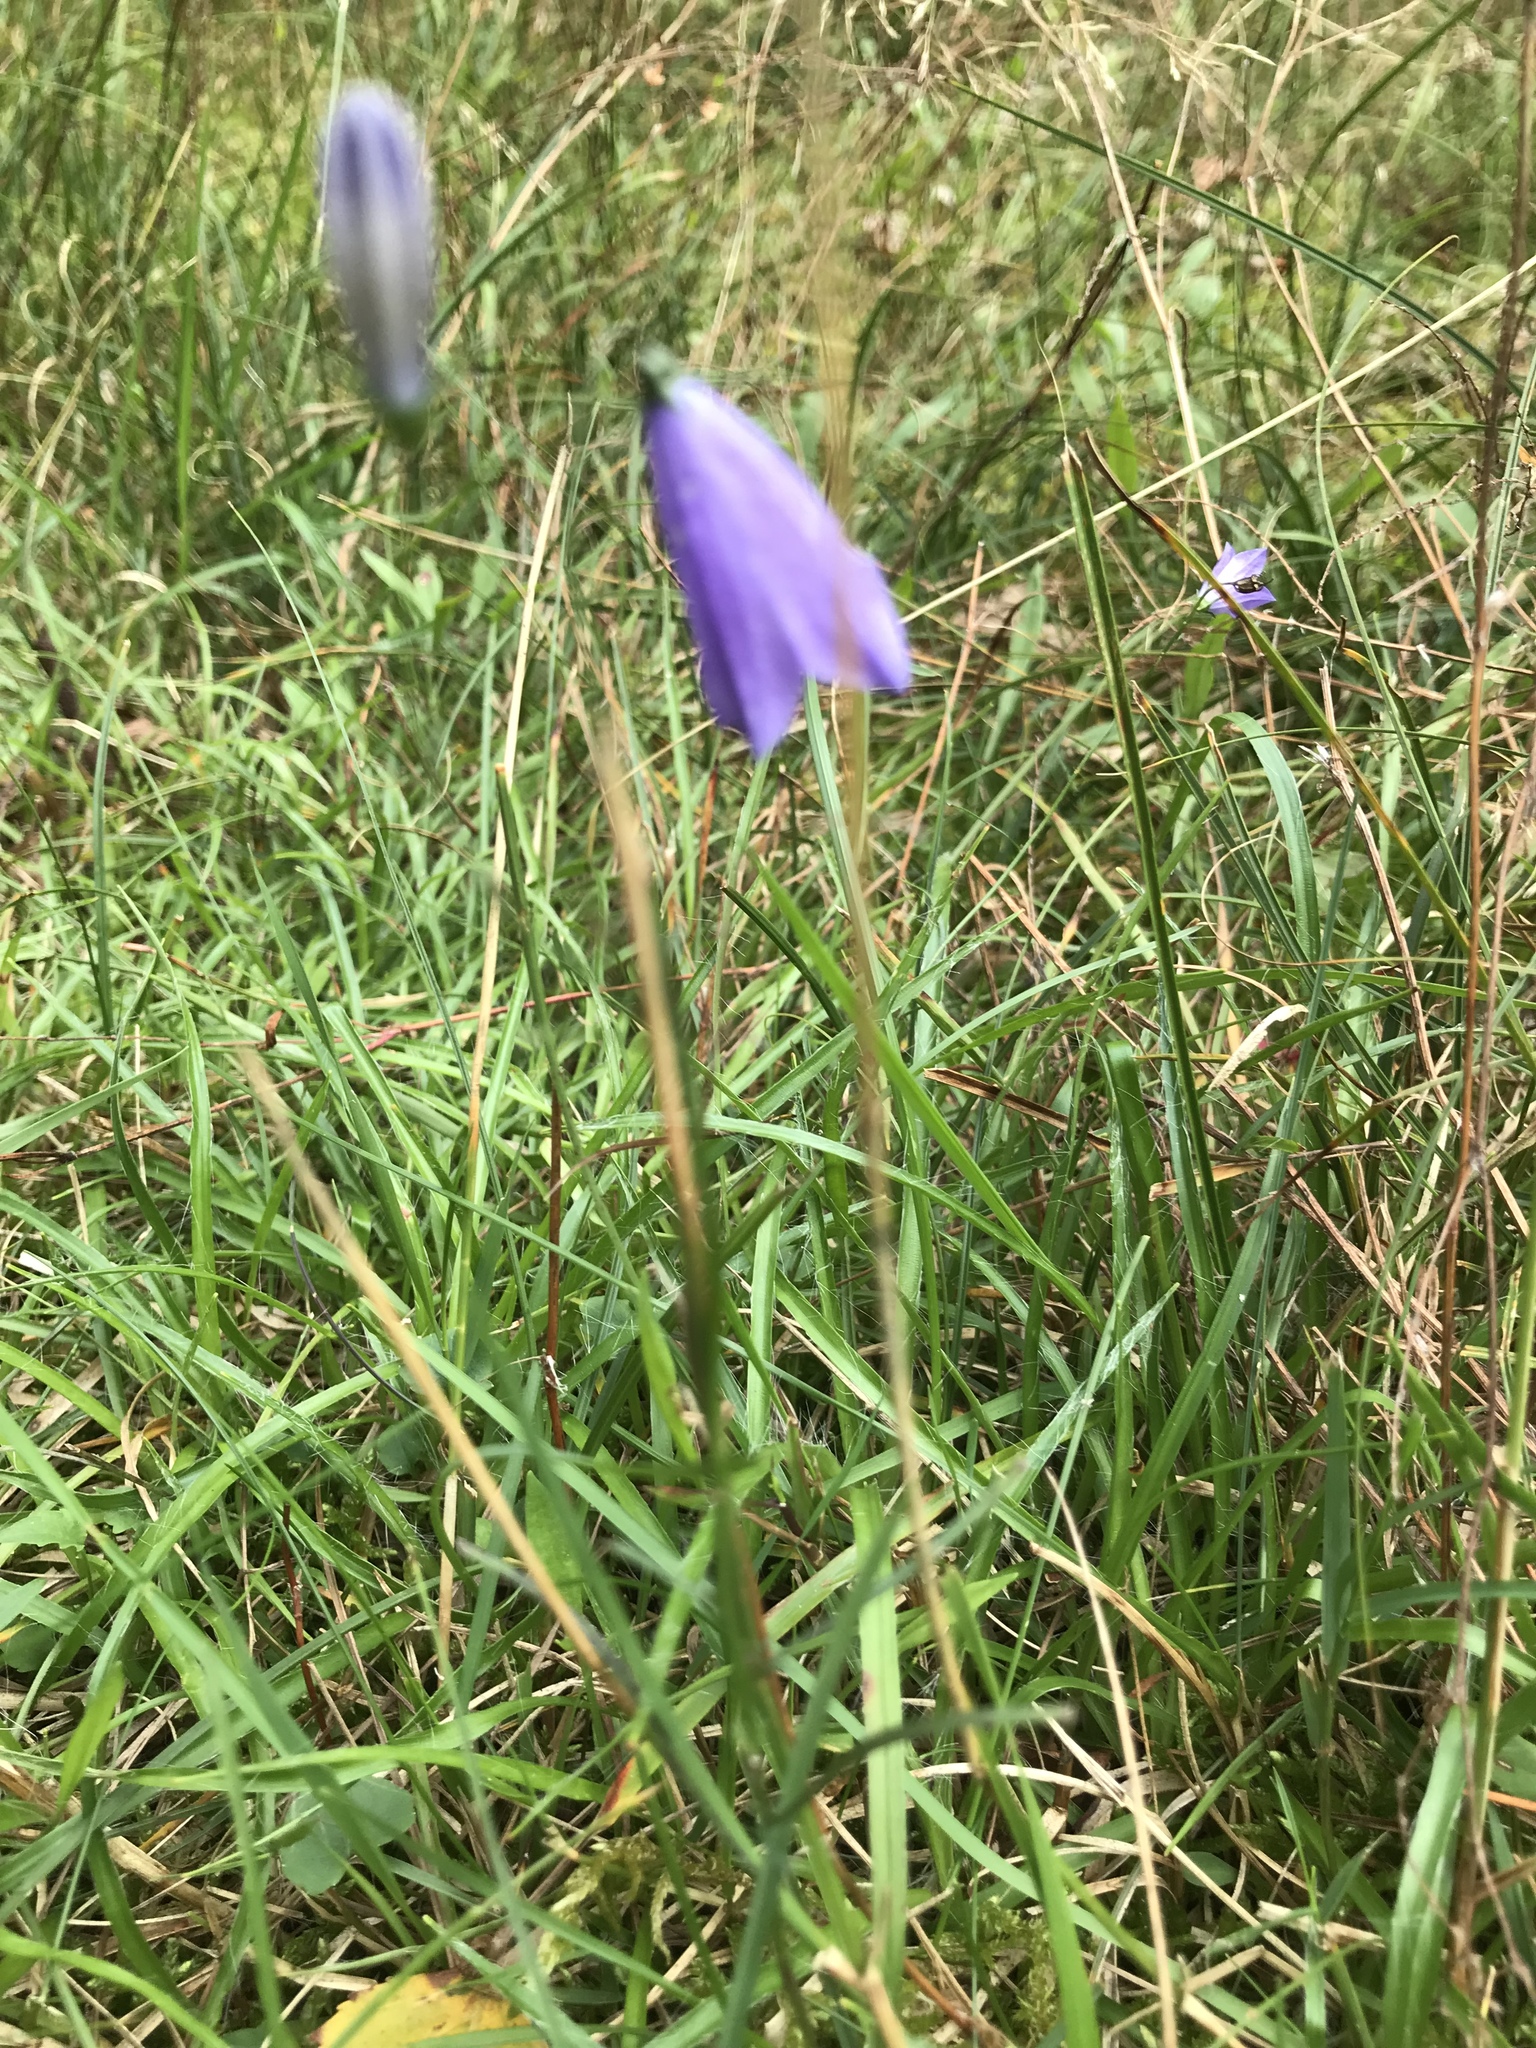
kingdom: Plantae
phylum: Tracheophyta
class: Magnoliopsida
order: Asterales
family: Campanulaceae
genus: Campanula
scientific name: Campanula rotundifolia
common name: Harebell
